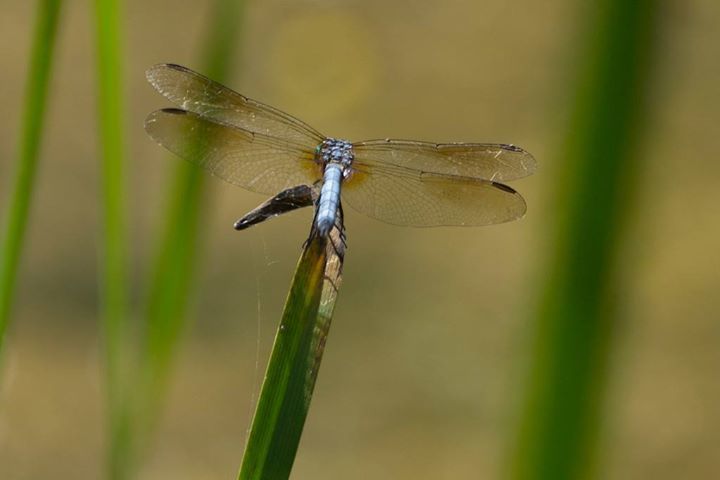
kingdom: Animalia
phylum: Arthropoda
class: Insecta
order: Odonata
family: Libellulidae
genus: Pachydiplax
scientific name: Pachydiplax longipennis
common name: Blue dasher
